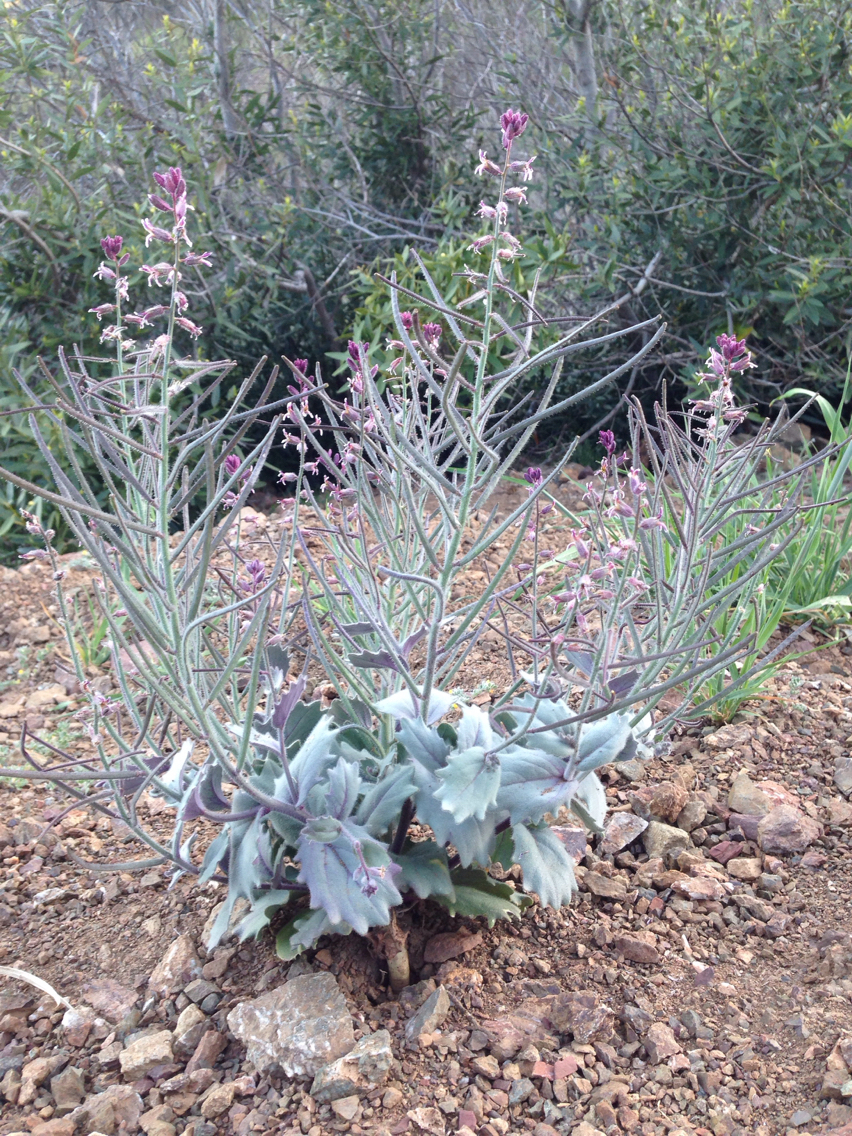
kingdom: Plantae
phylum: Tracheophyta
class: Magnoliopsida
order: Brassicales
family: Brassicaceae
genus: Streptanthus
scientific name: Streptanthus hispidus
